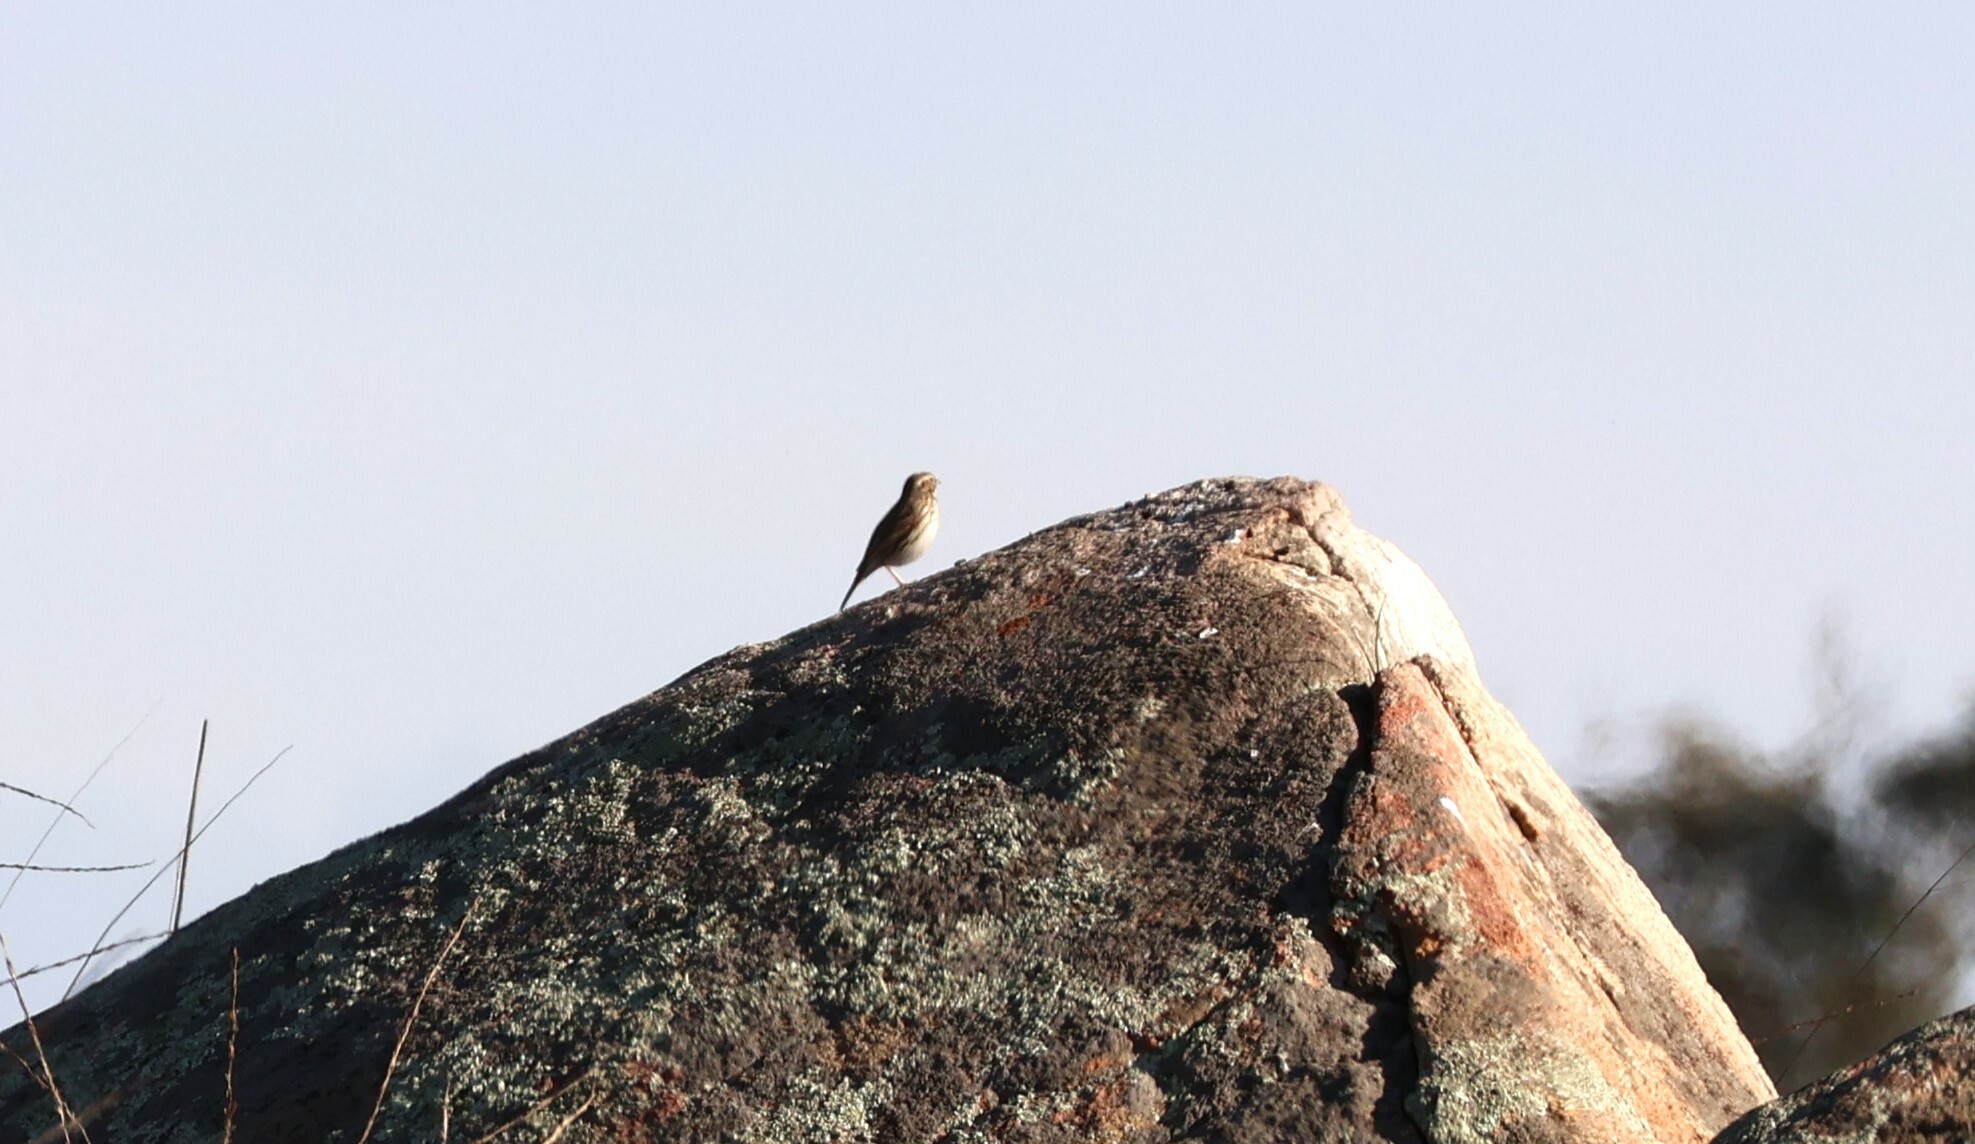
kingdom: Animalia
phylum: Chordata
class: Aves
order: Passeriformes
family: Passerellidae
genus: Passerculus
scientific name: Passerculus sandwichensis
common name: Savannah sparrow
